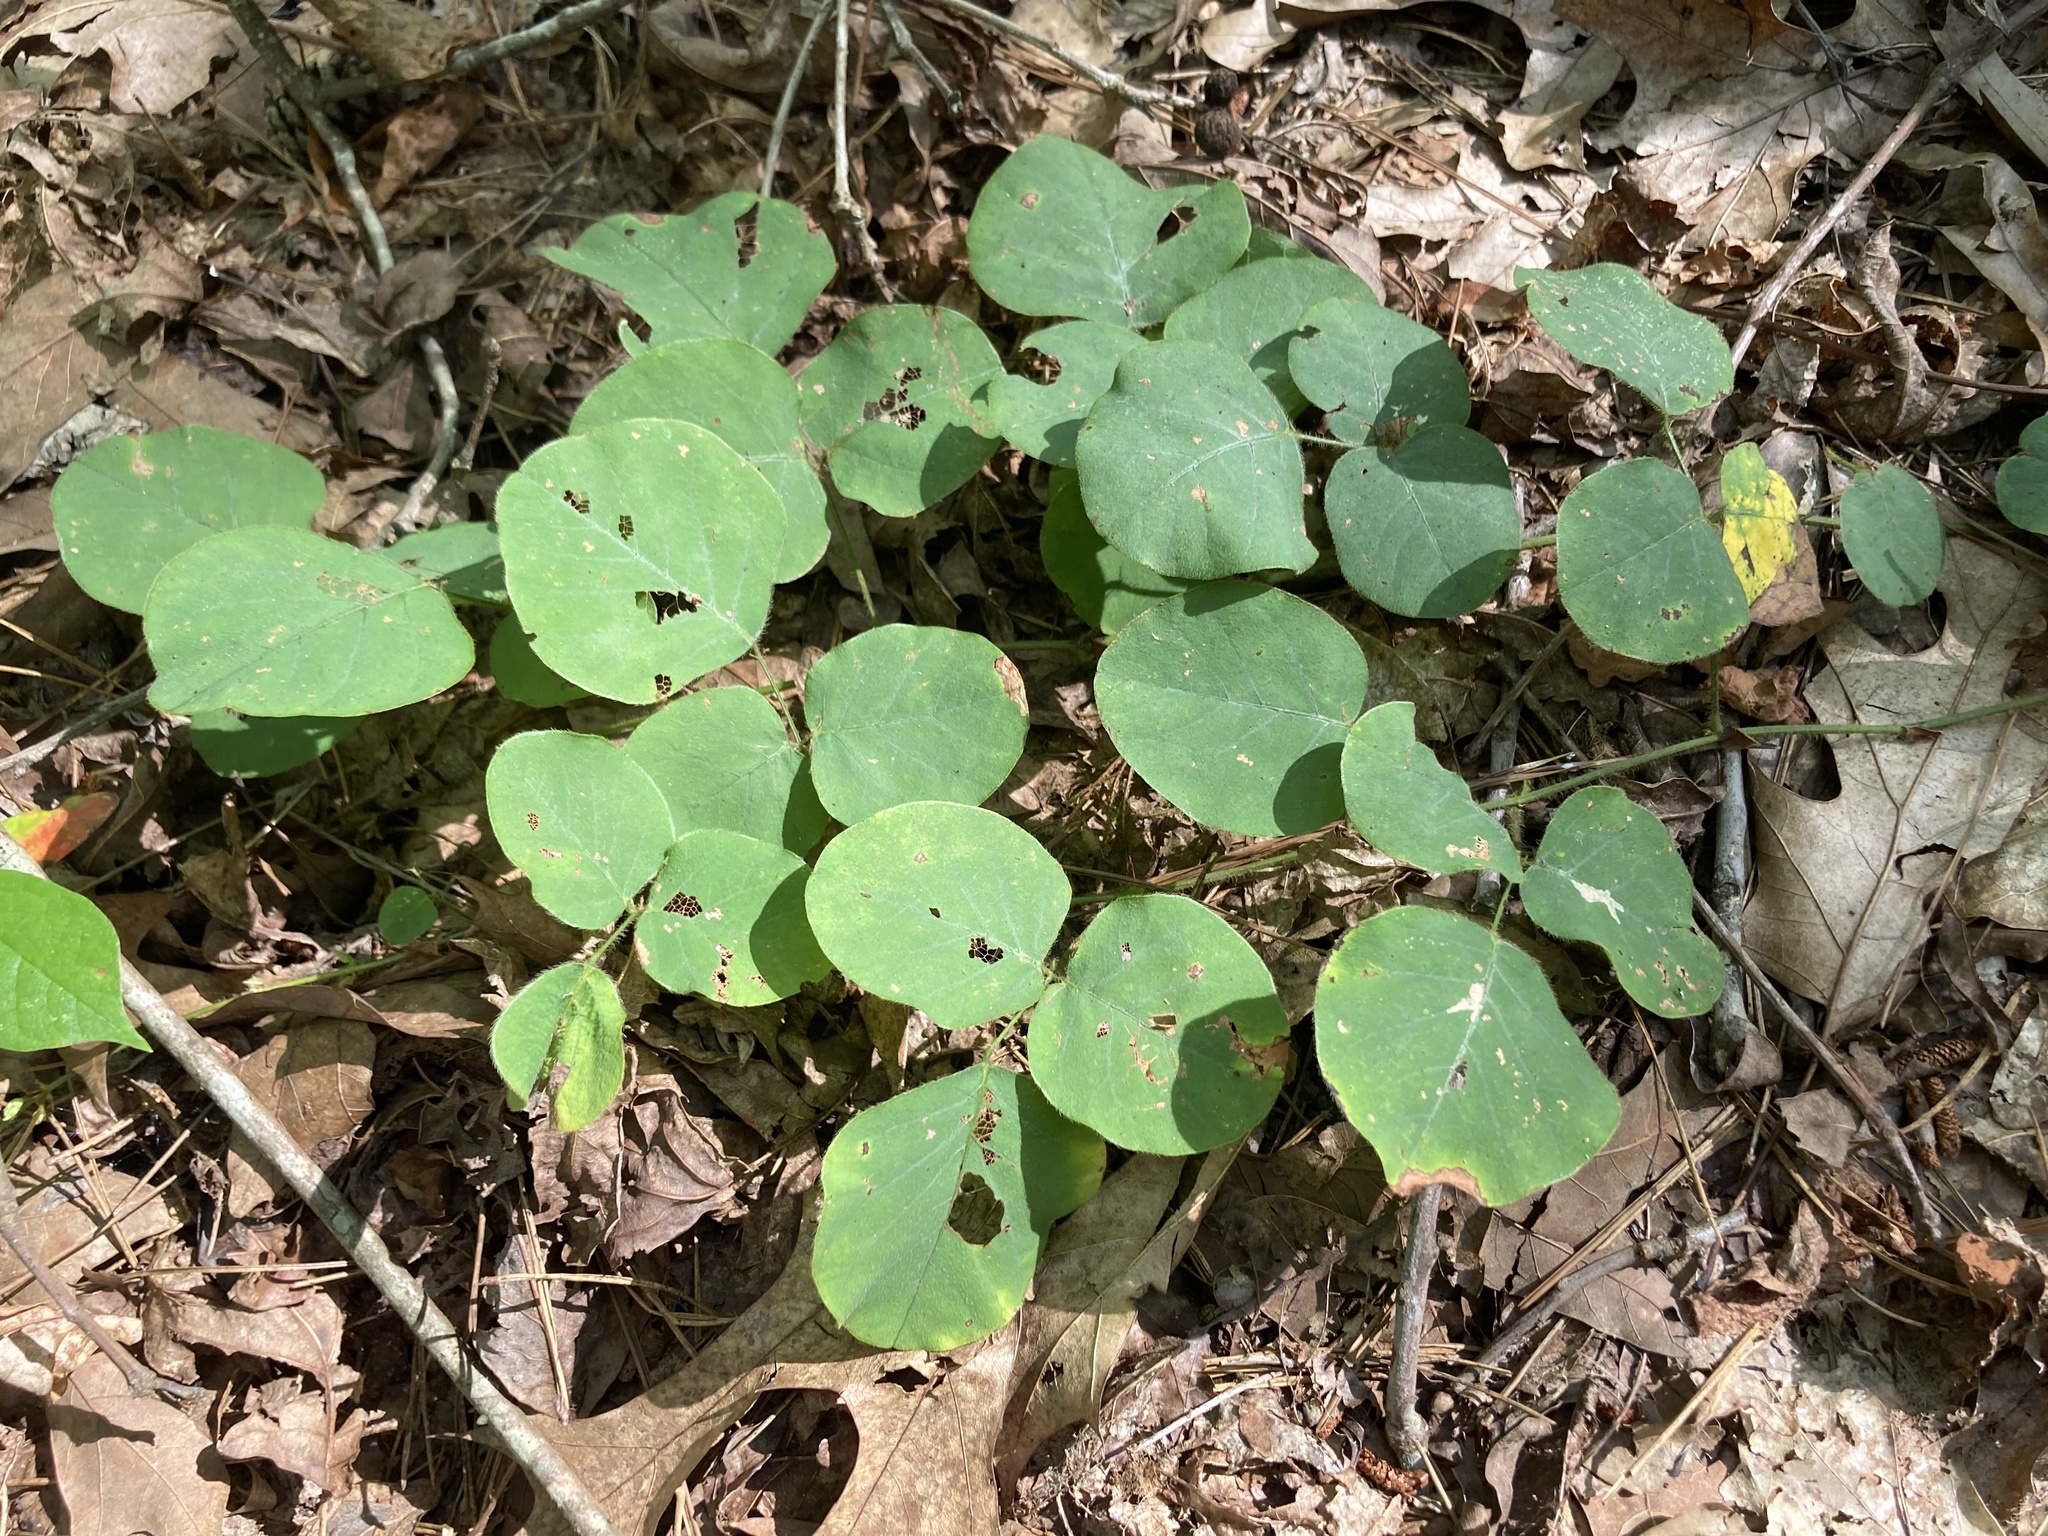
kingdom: Plantae
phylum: Tracheophyta
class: Magnoliopsida
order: Fabales
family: Fabaceae
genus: Desmodium
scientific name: Desmodium rotundifolium
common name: Dollarleaf
